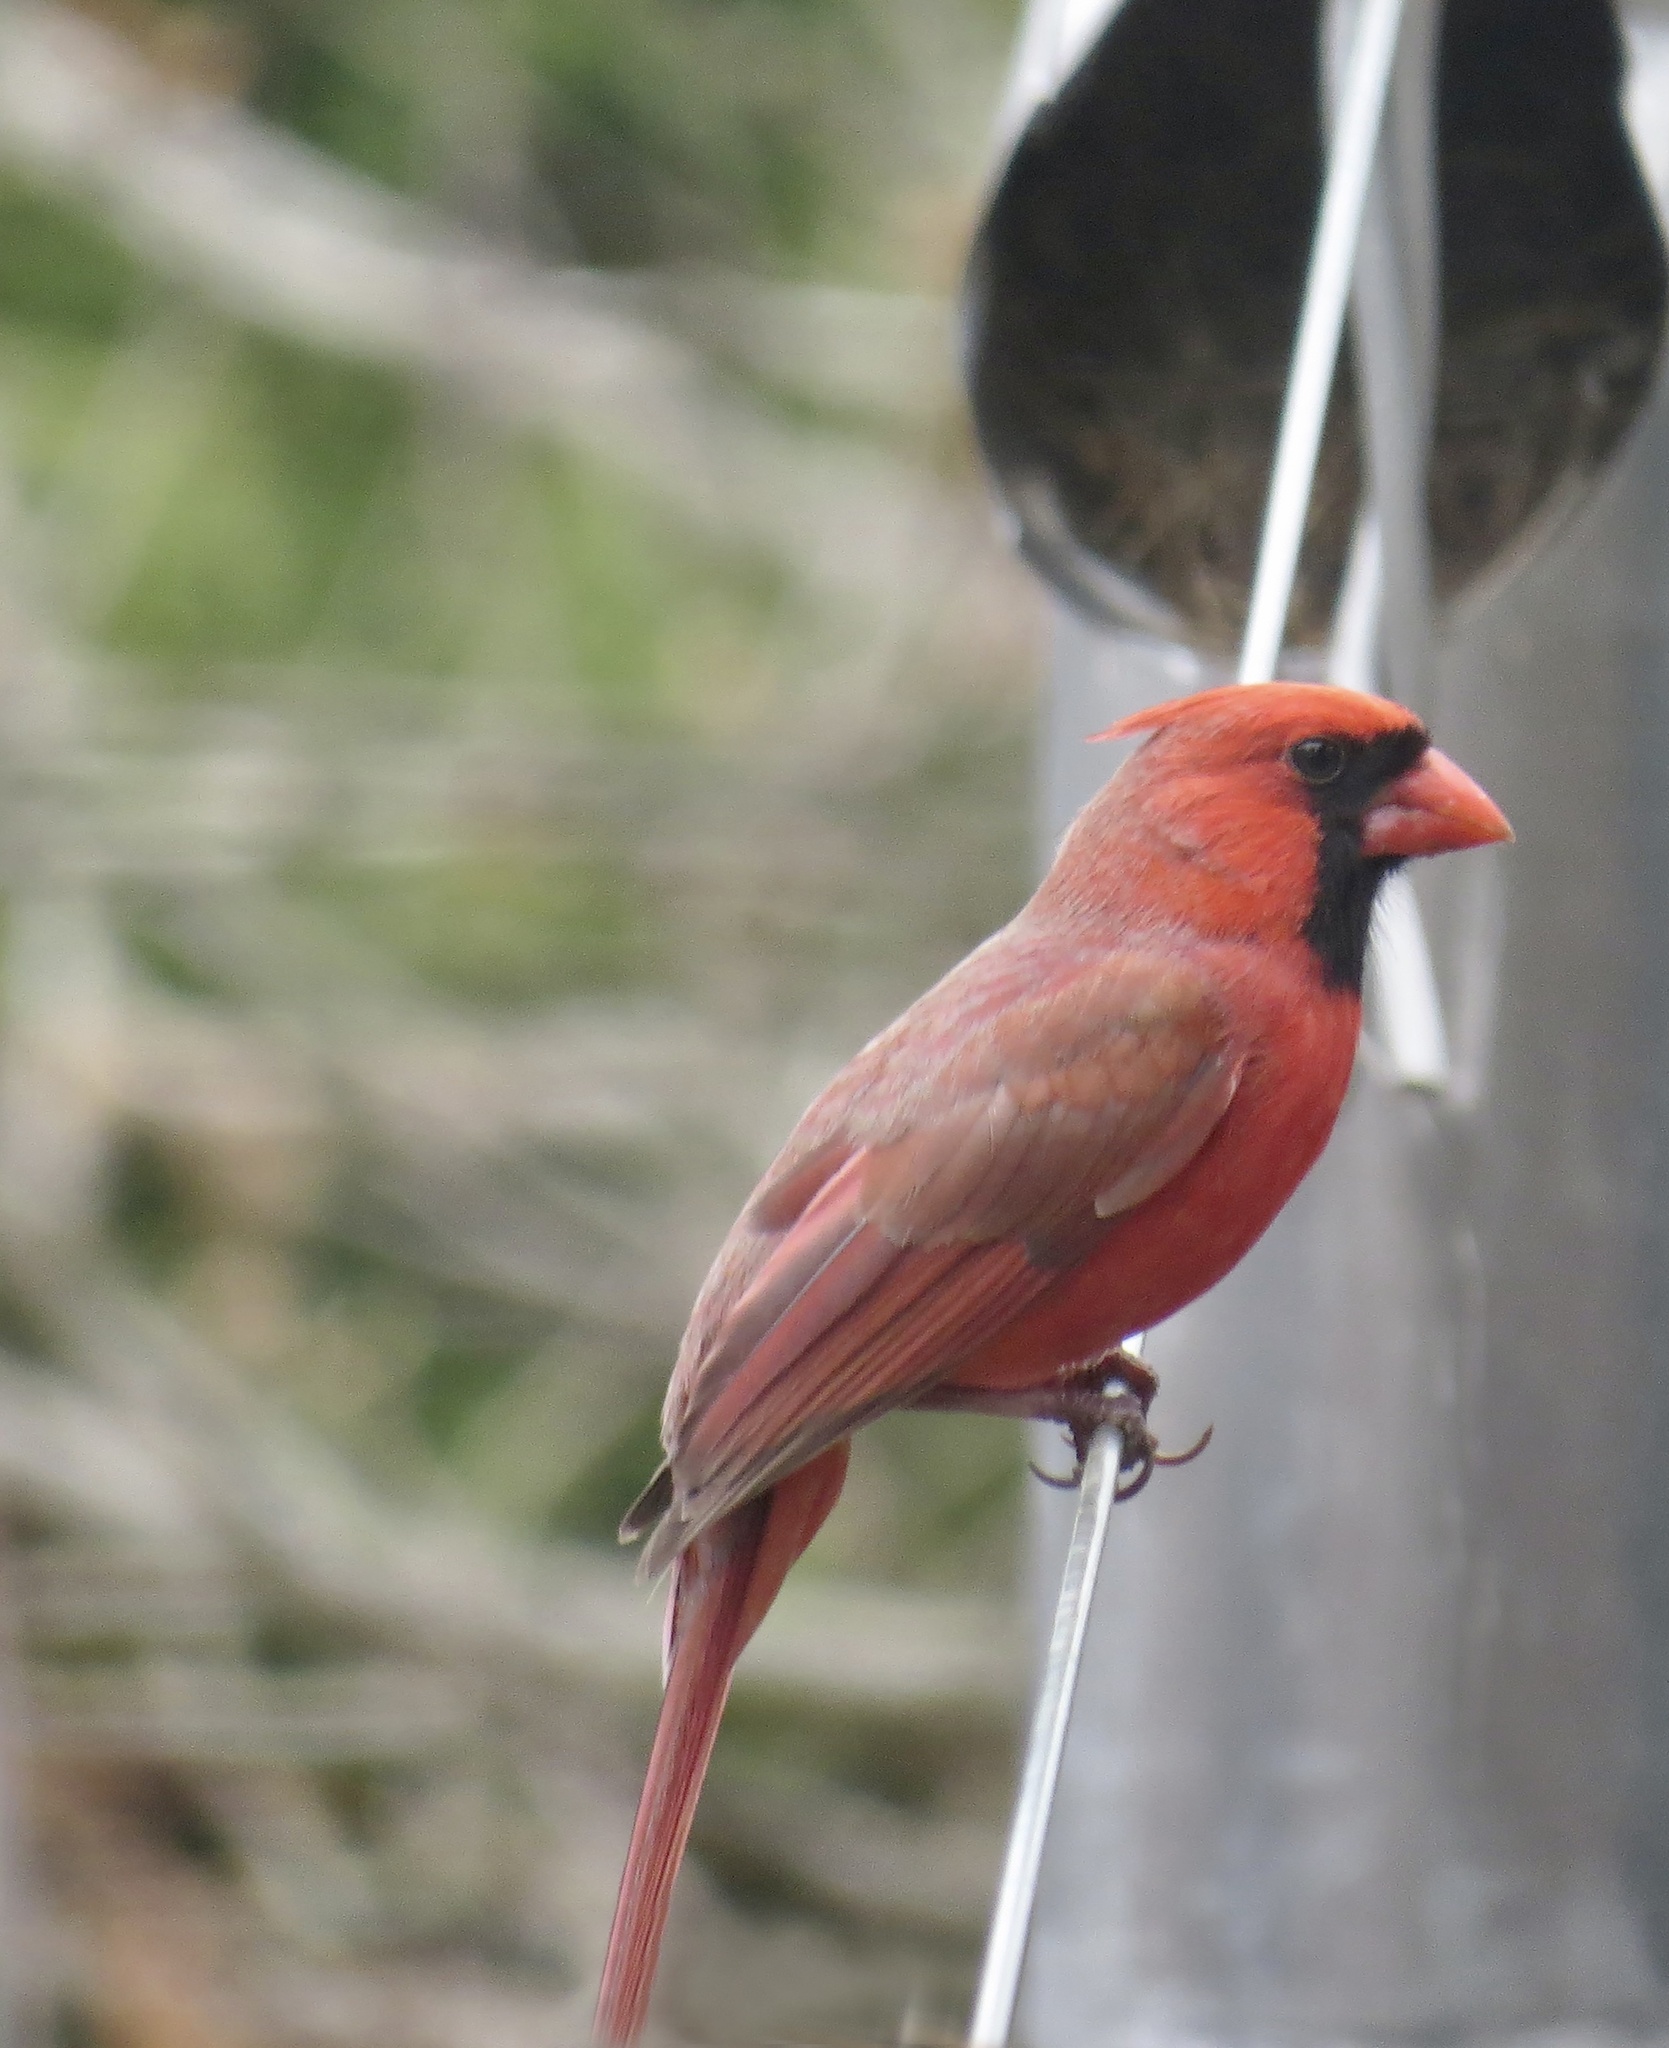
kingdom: Animalia
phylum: Chordata
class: Aves
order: Passeriformes
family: Cardinalidae
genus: Cardinalis
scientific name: Cardinalis cardinalis
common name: Northern cardinal
